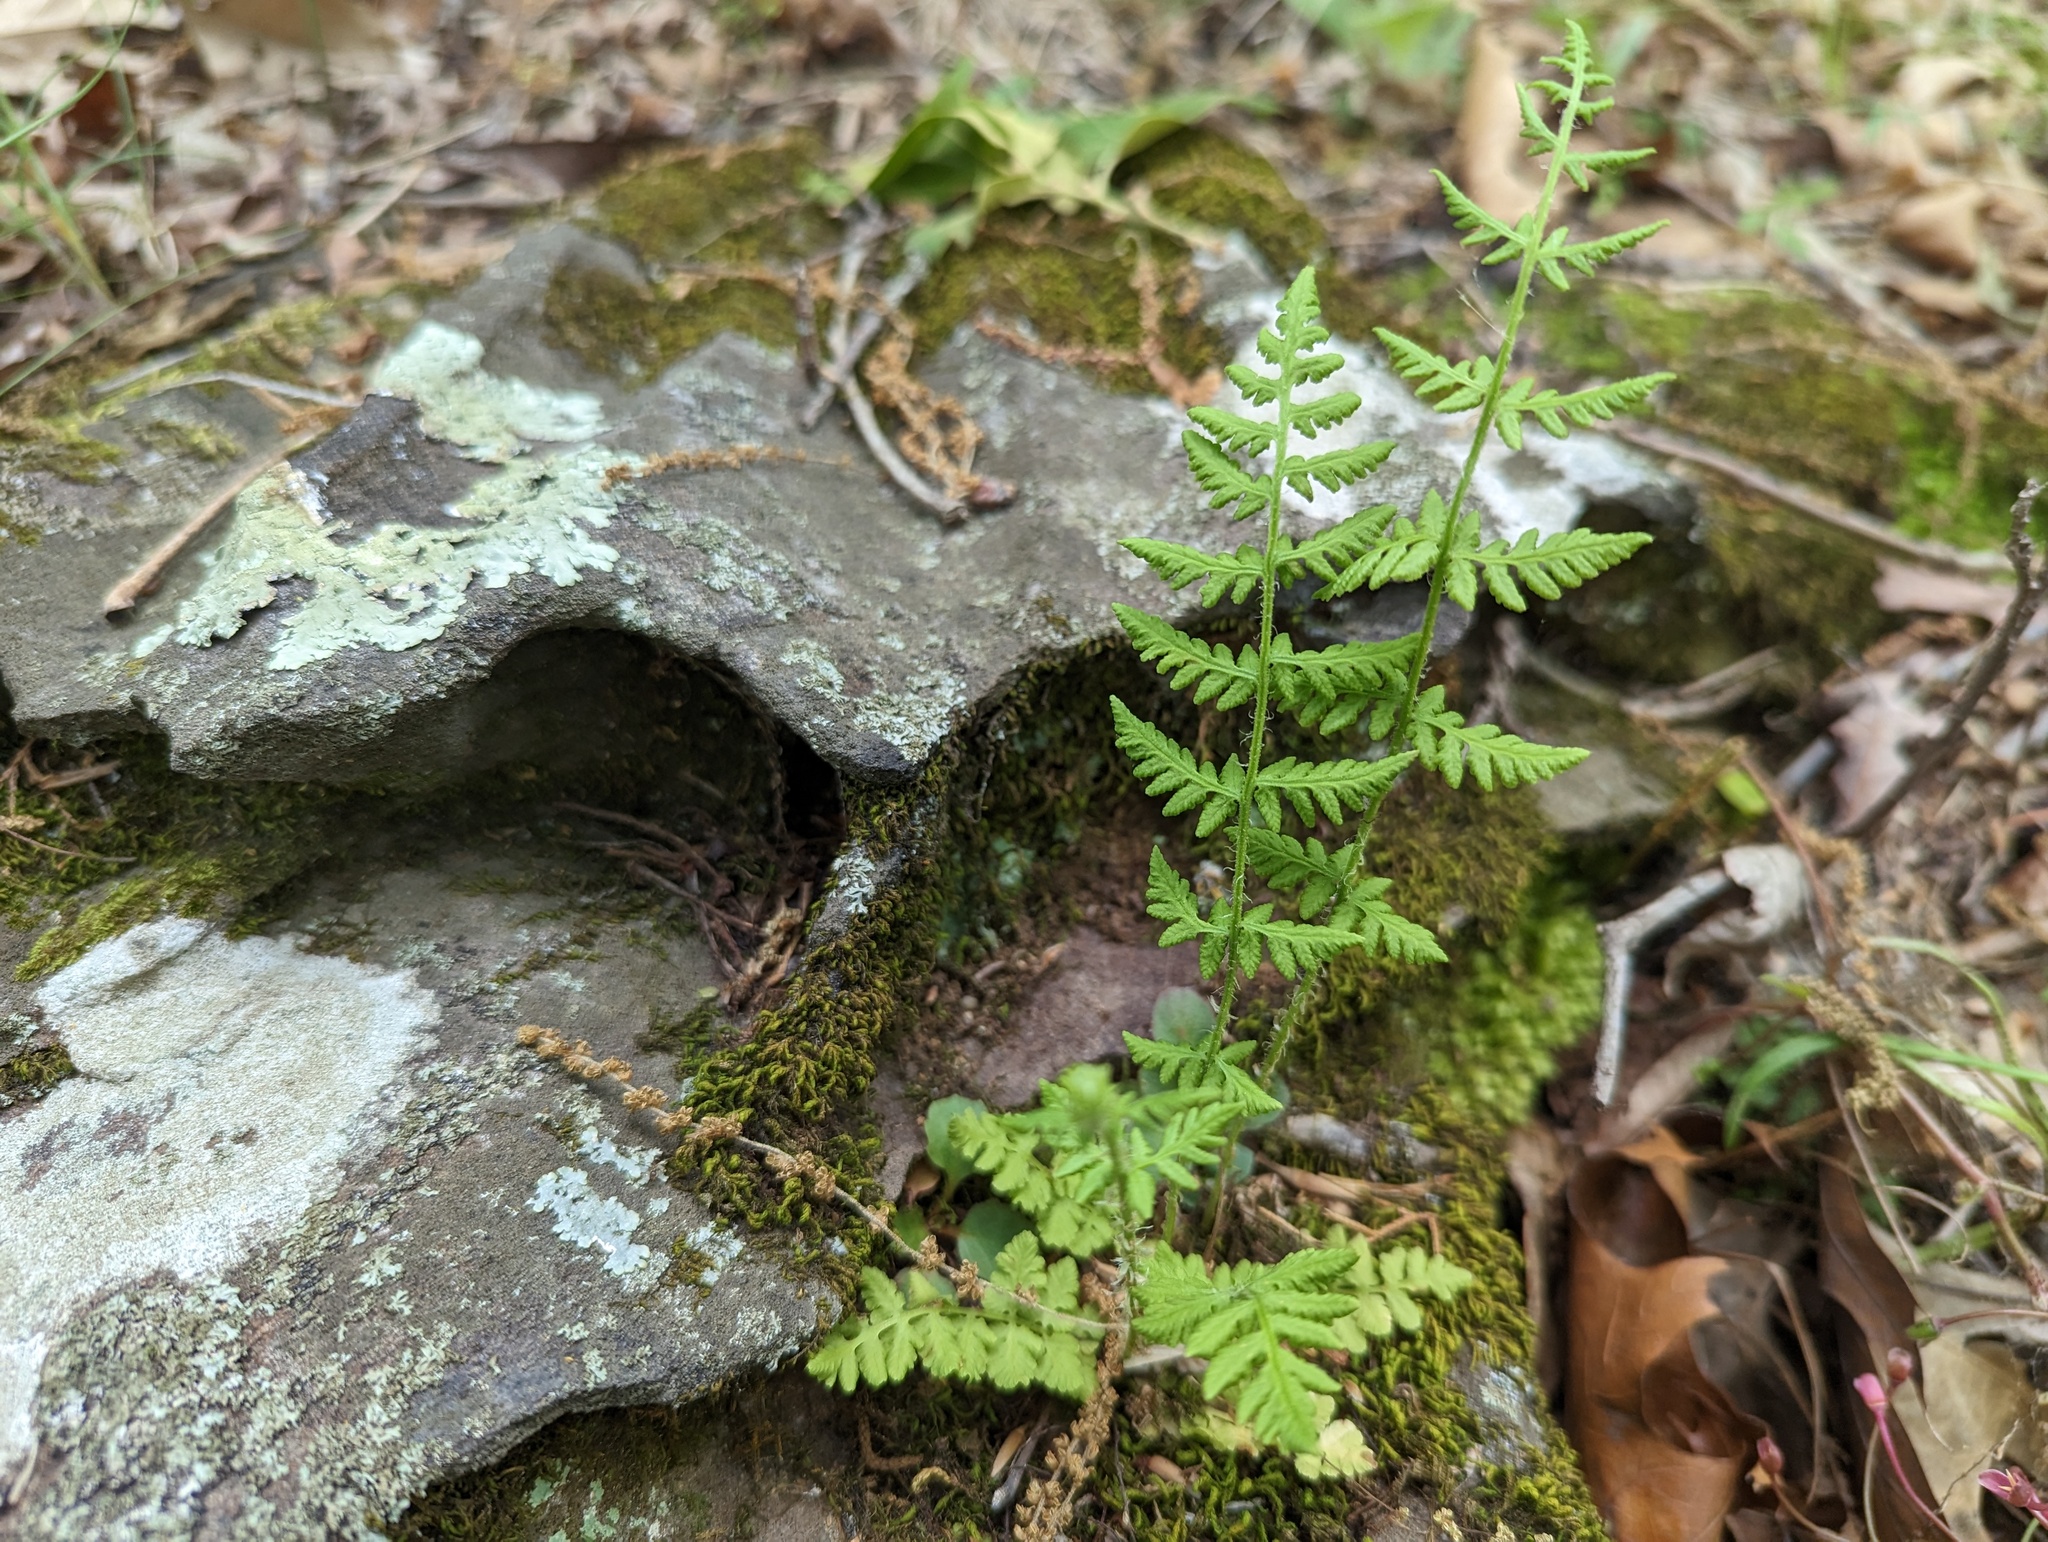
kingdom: Plantae
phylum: Tracheophyta
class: Polypodiopsida
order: Polypodiales
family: Woodsiaceae
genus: Physematium
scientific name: Physematium obtusum
